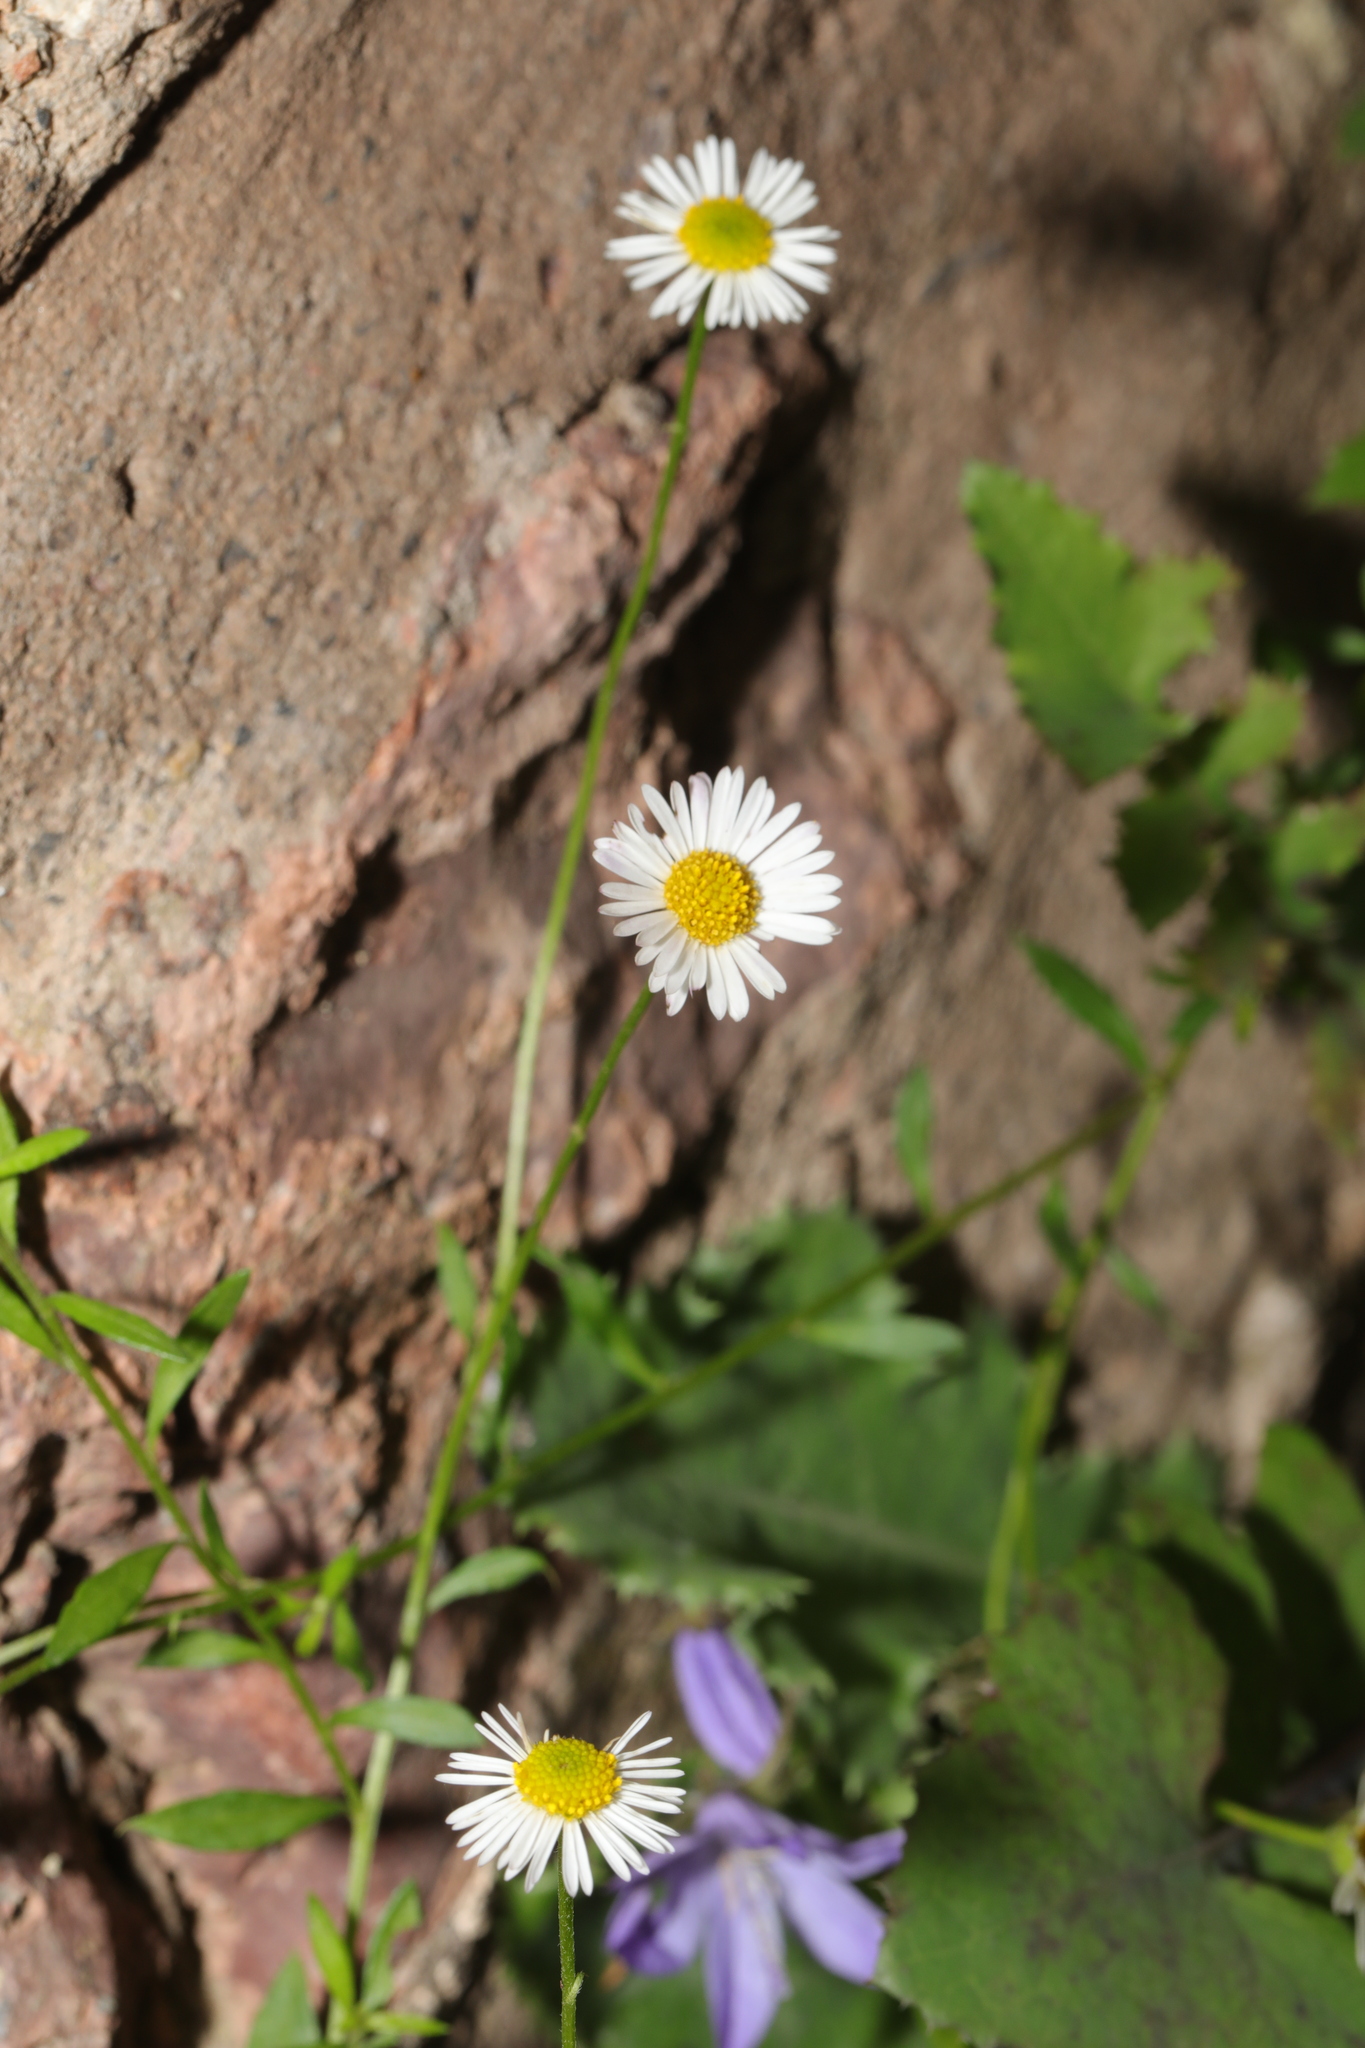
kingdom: Plantae
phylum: Tracheophyta
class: Magnoliopsida
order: Asterales
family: Asteraceae
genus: Erigeron
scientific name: Erigeron karvinskianus
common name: Mexican fleabane
